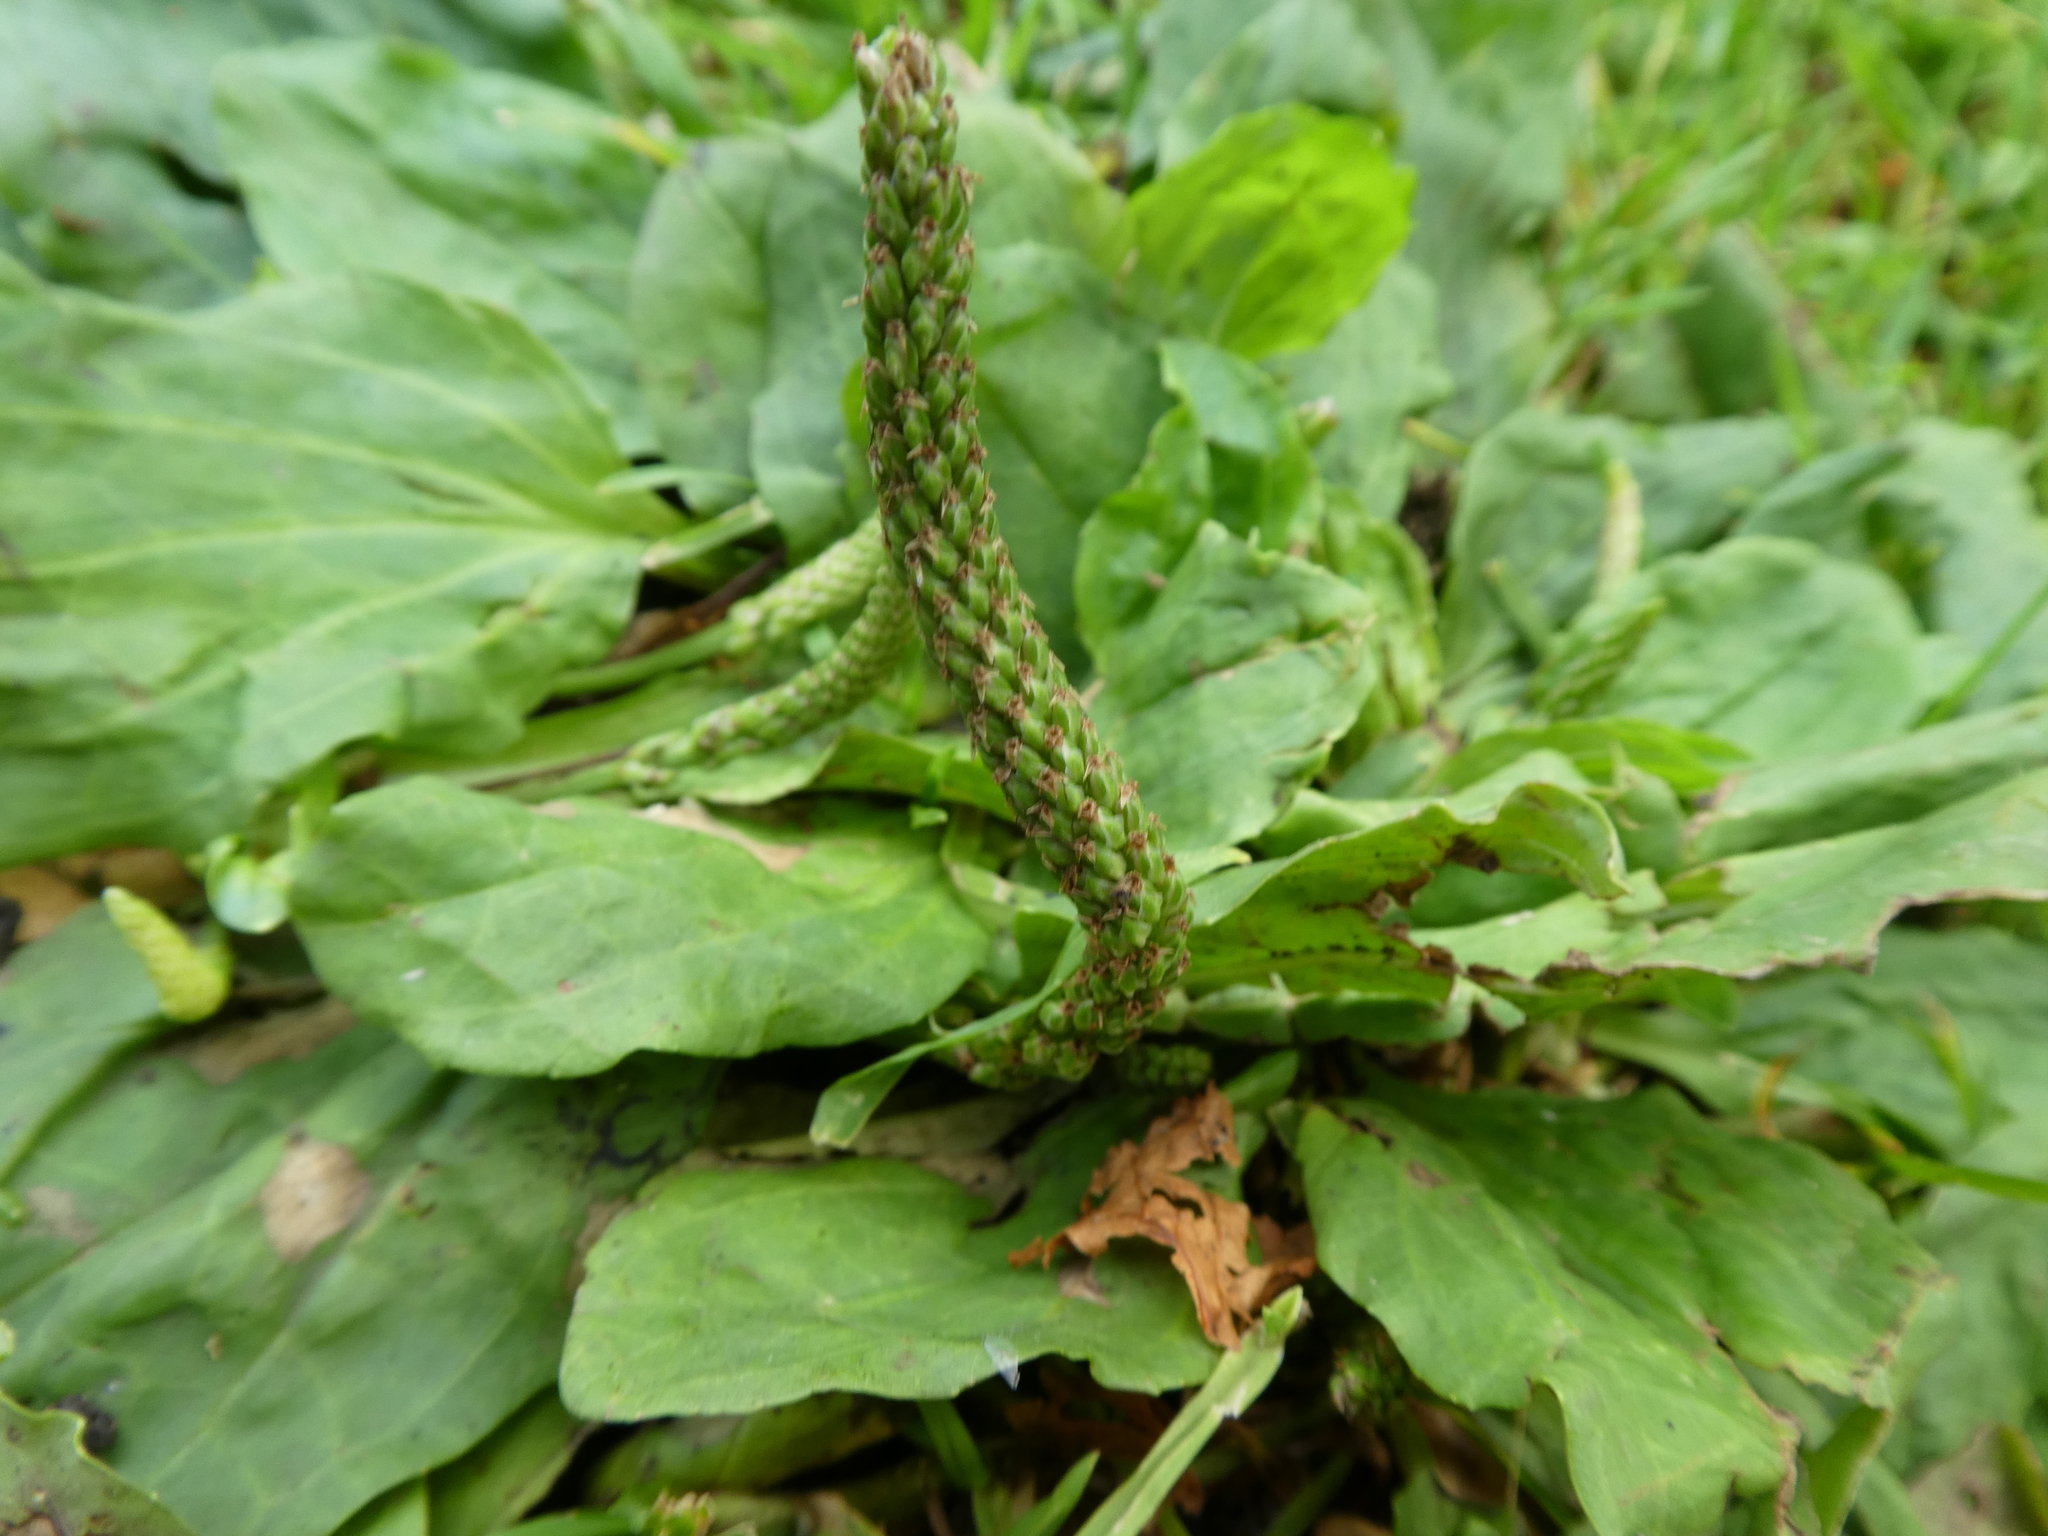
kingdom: Plantae
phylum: Tracheophyta
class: Magnoliopsida
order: Lamiales
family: Plantaginaceae
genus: Plantago
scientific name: Plantago major
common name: Common plantain
